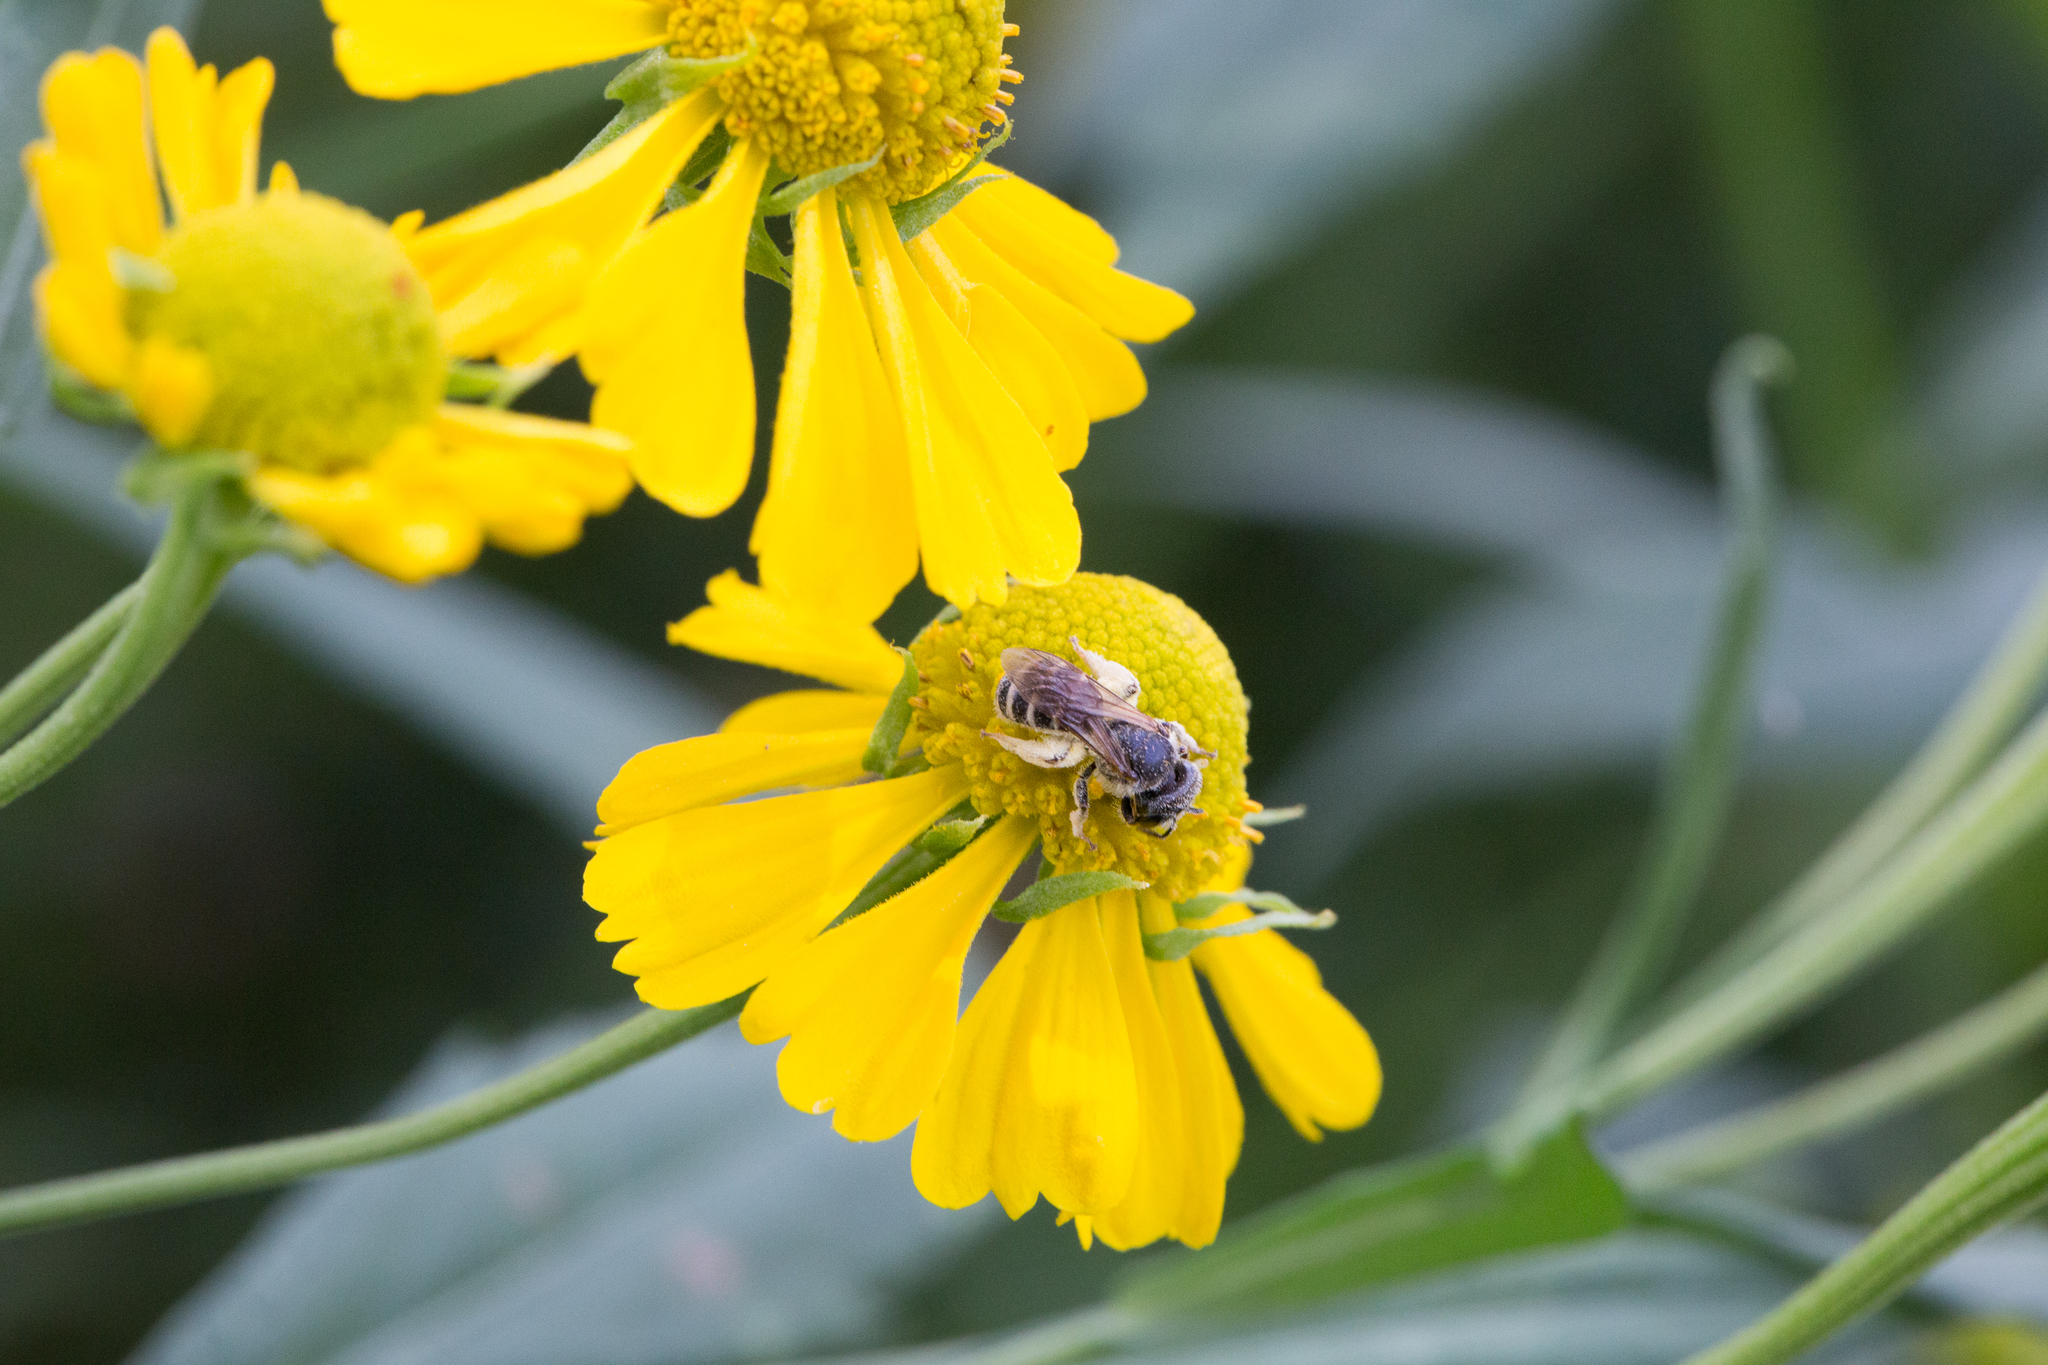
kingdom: Animalia
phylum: Arthropoda
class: Insecta
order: Hymenoptera
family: Halictidae
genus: Halictus
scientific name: Halictus ligatus
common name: Ligated furrow bee
